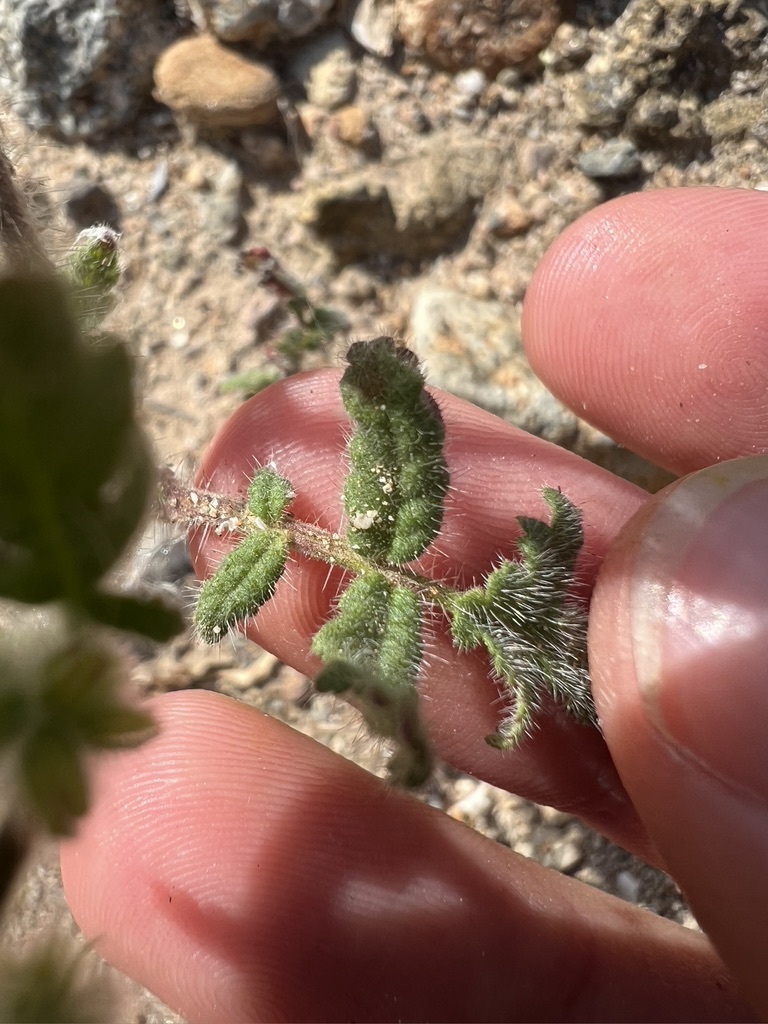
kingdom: Plantae
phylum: Tracheophyta
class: Magnoliopsida
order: Boraginales
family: Hydrophyllaceae
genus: Phacelia
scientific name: Phacelia cicutaria
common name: Caterpillar phacelia
